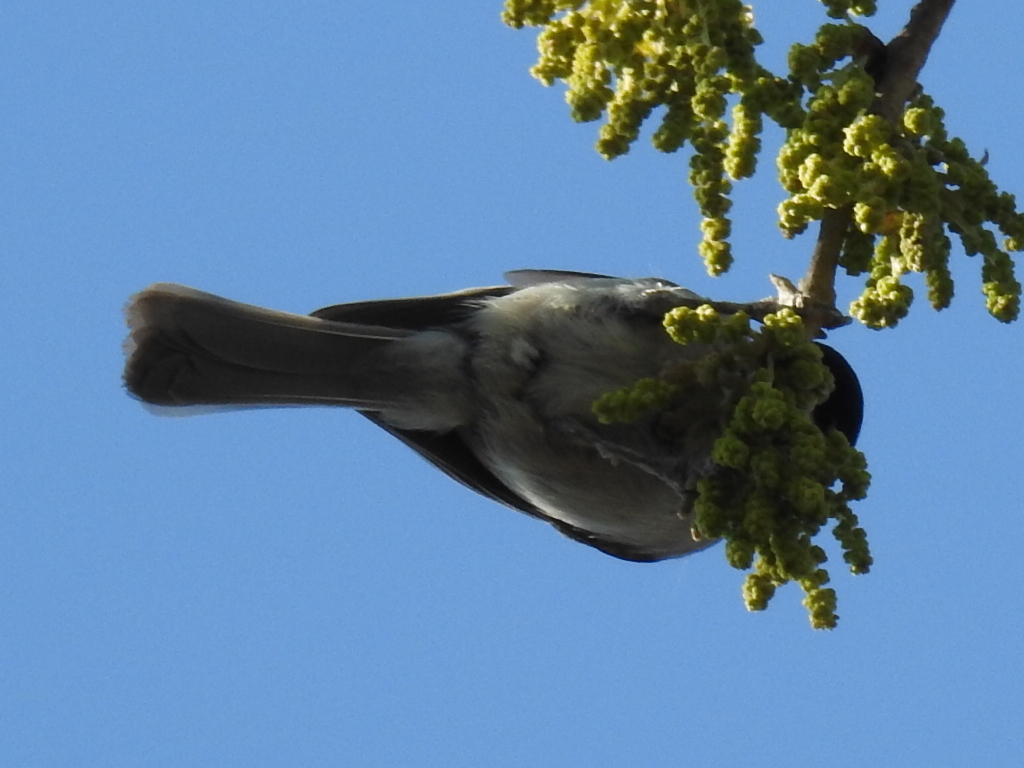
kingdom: Animalia
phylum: Chordata
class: Aves
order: Passeriformes
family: Paridae
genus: Poecile
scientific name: Poecile carolinensis
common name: Carolina chickadee
